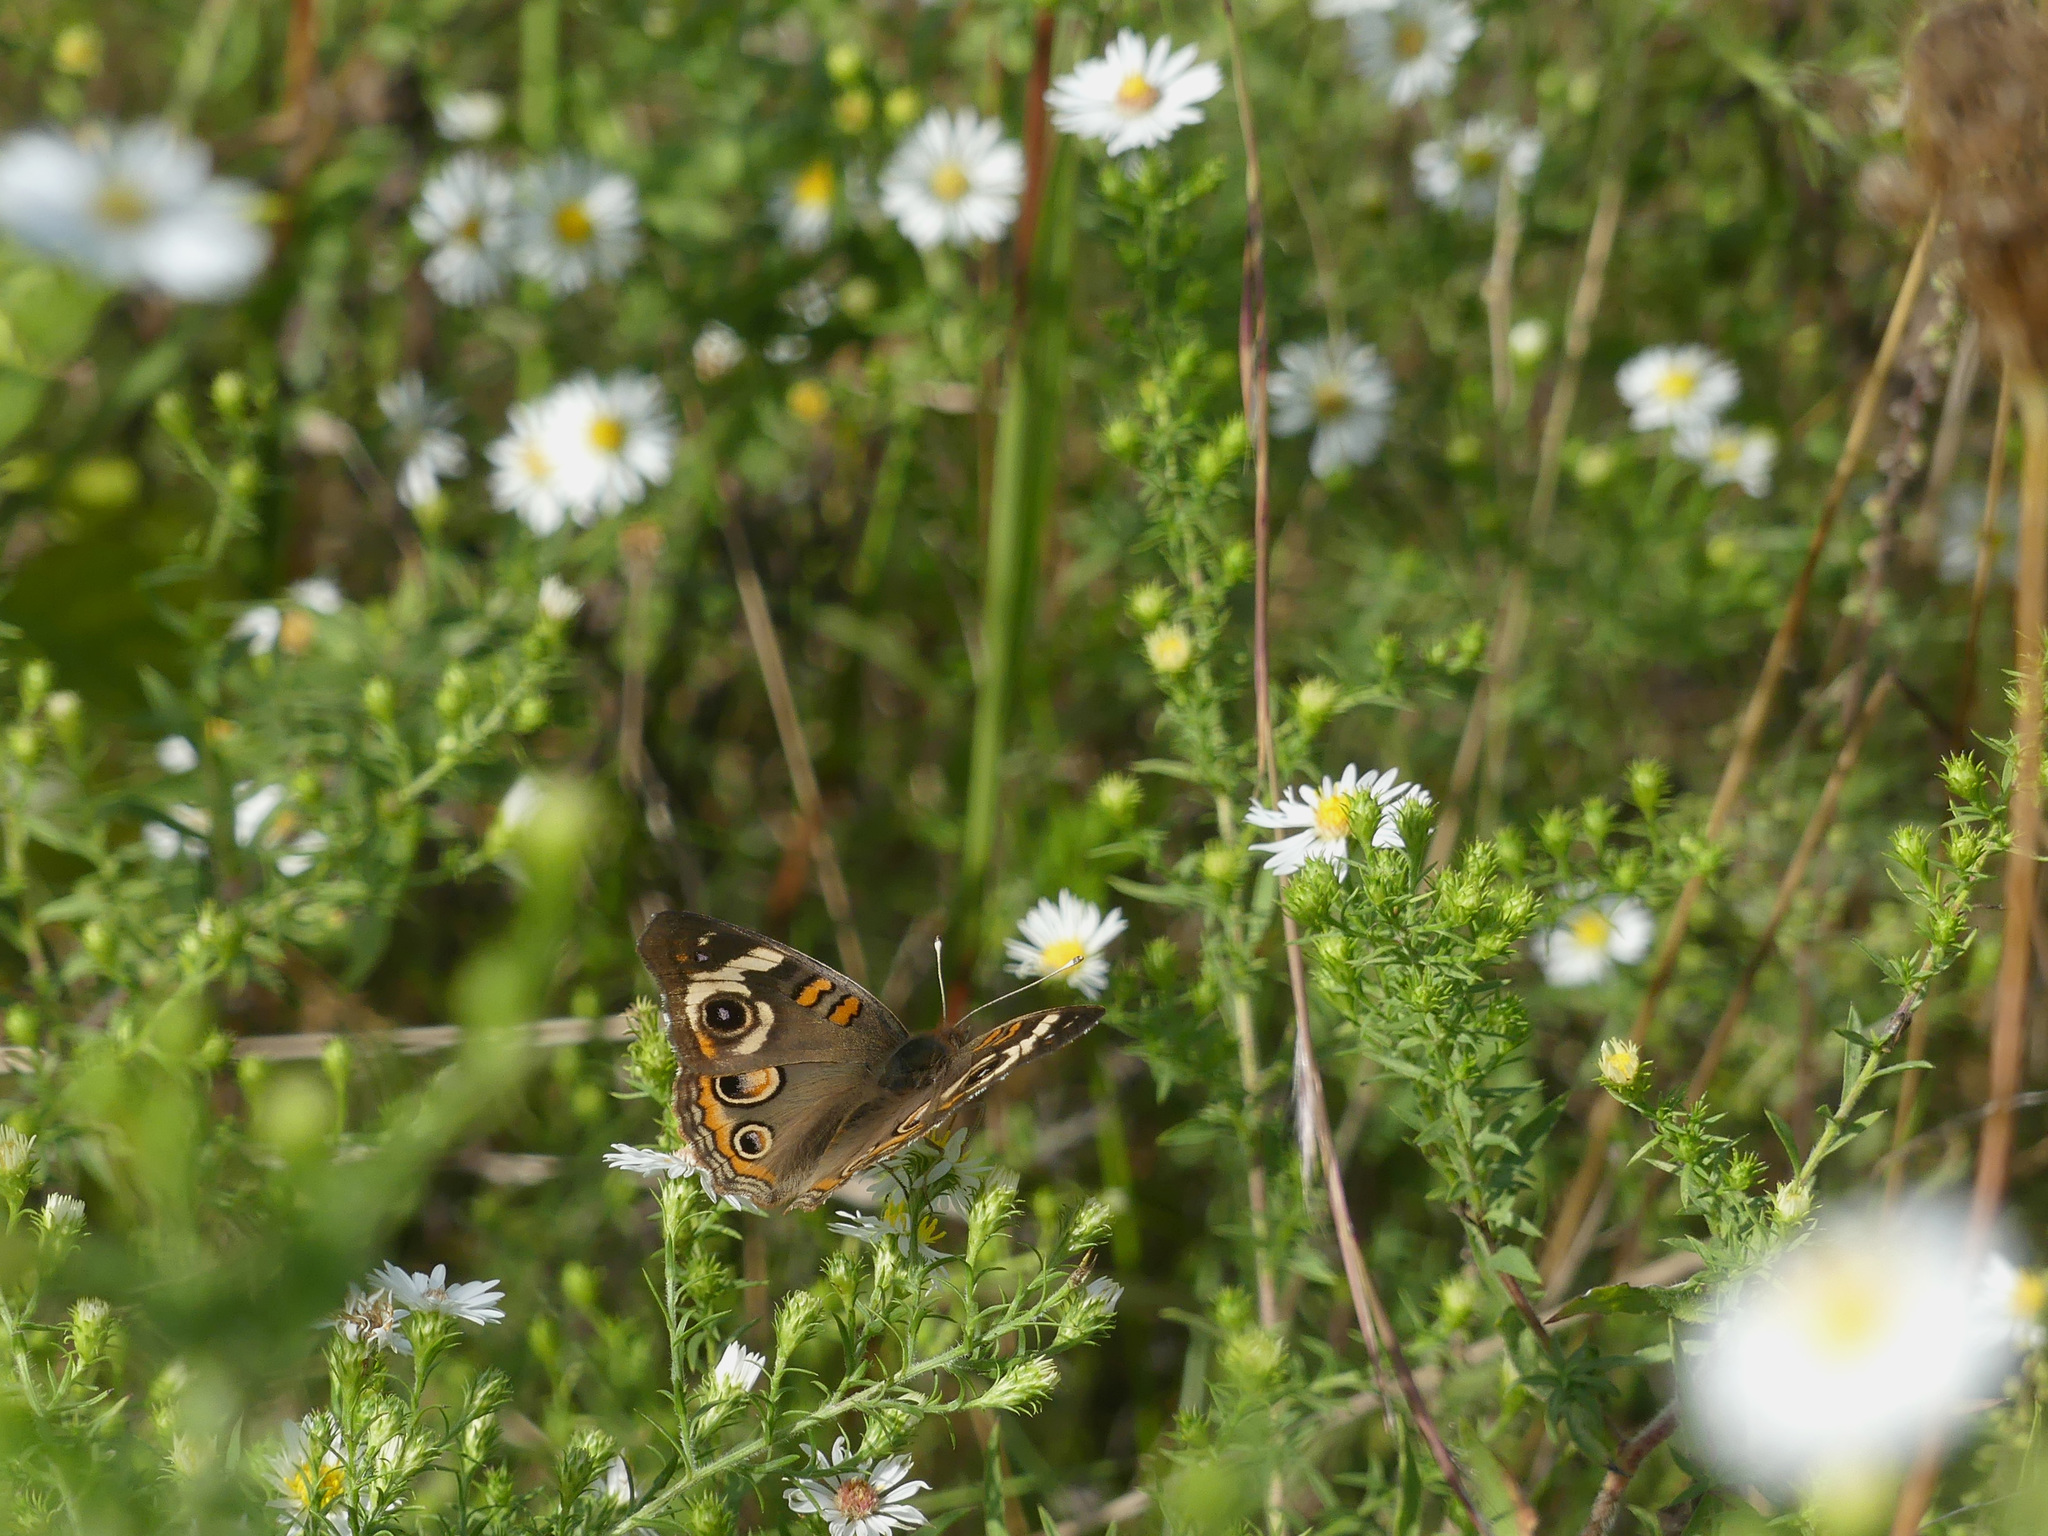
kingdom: Animalia
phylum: Arthropoda
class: Insecta
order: Lepidoptera
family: Nymphalidae
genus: Junonia
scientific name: Junonia coenia
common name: Common buckeye
